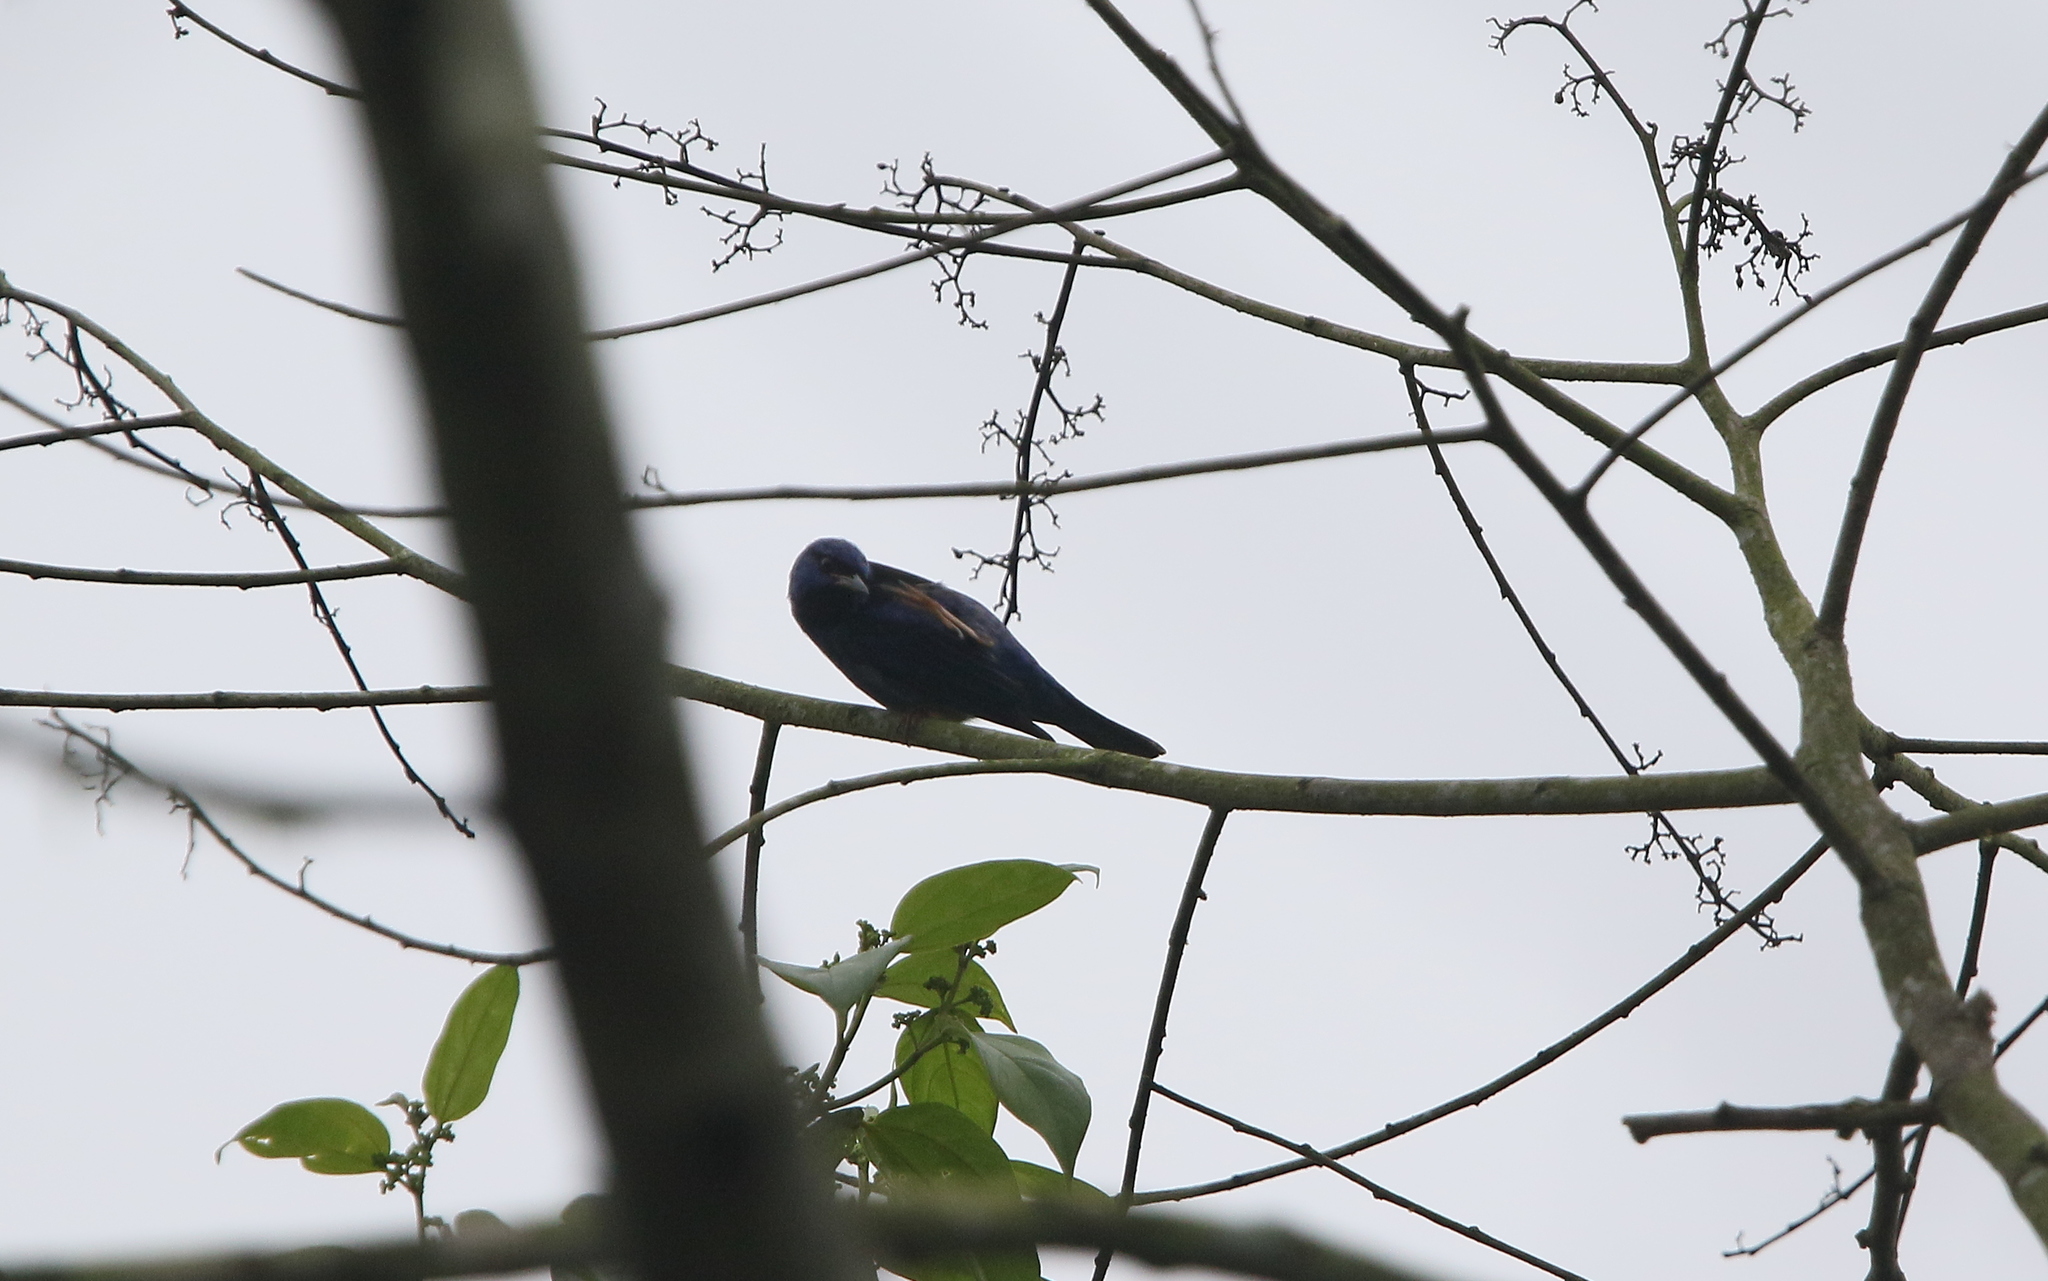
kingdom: Animalia
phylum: Chordata
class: Aves
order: Passeriformes
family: Thraupidae
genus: Dacnis
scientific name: Dacnis cayana
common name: Blue dacnis
